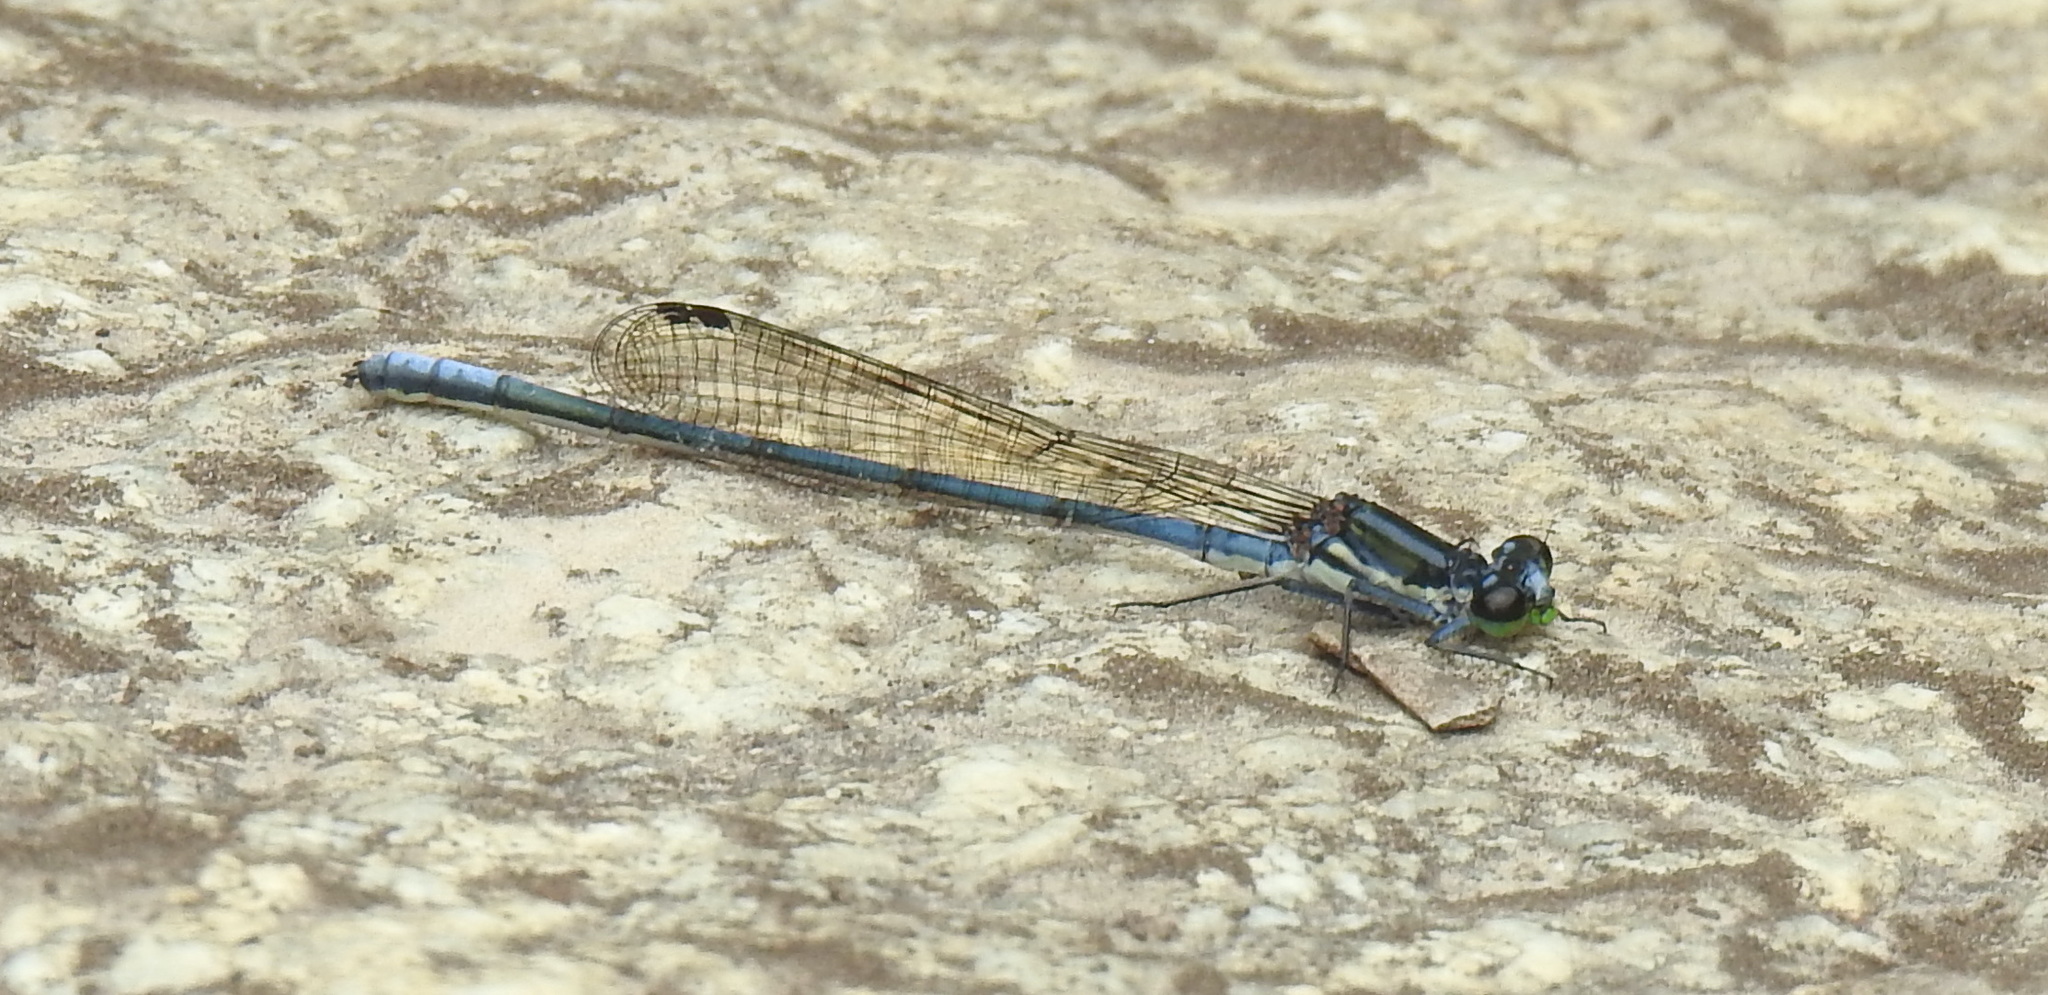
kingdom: Animalia
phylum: Arthropoda
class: Insecta
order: Odonata
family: Coenagrionidae
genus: Pseudagrion
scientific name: Pseudagrion furcigerum
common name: Palmiet sprite
